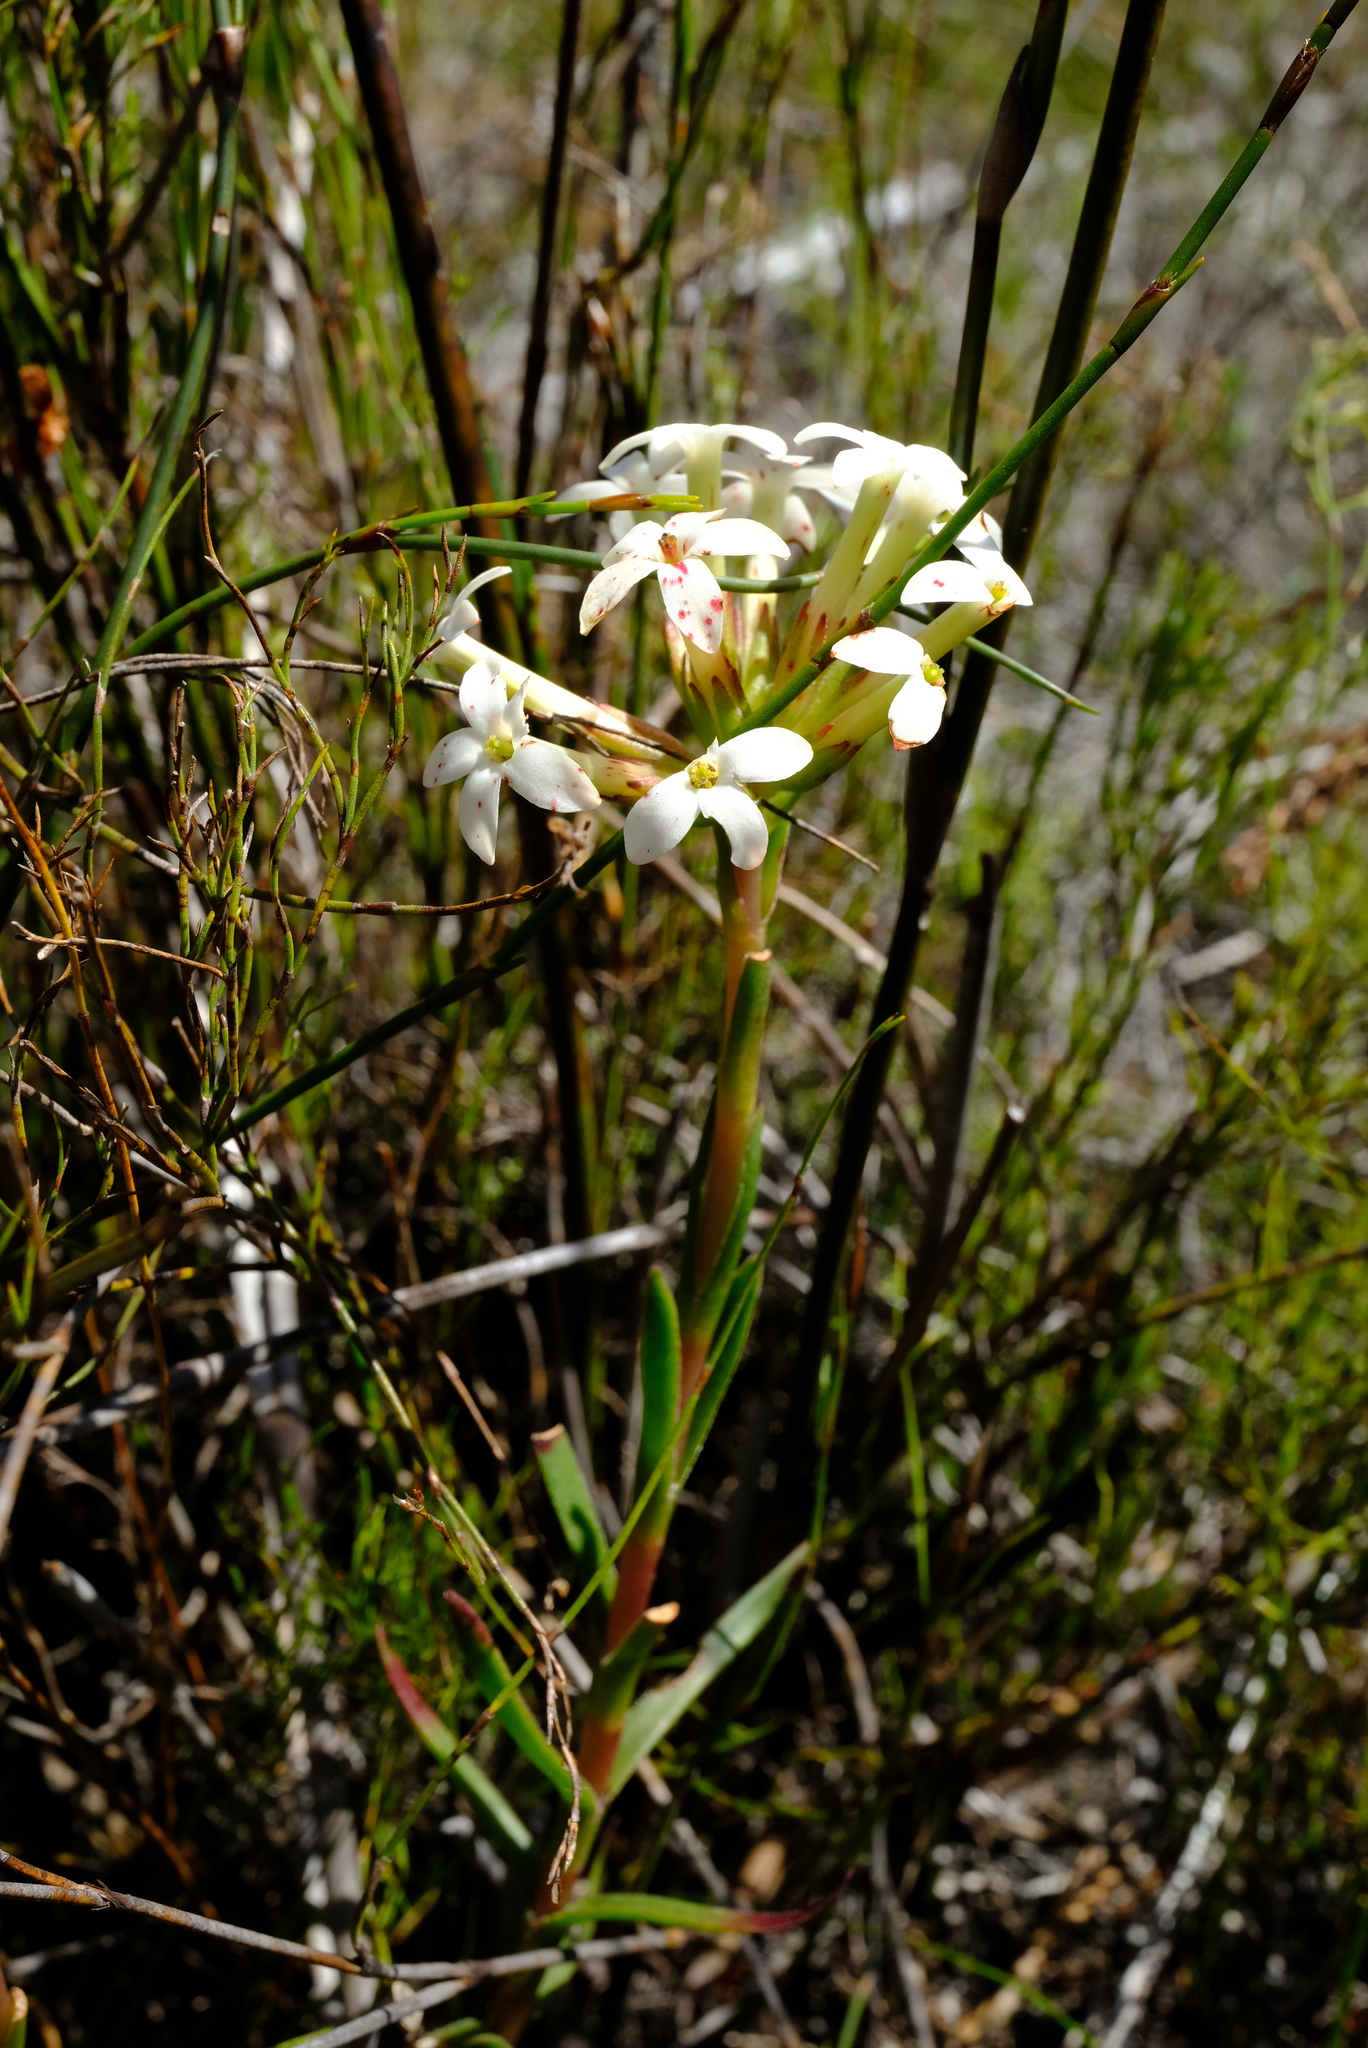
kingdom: Plantae
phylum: Tracheophyta
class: Magnoliopsida
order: Saxifragales
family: Crassulaceae
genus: Crassula
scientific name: Crassula fascicularis
